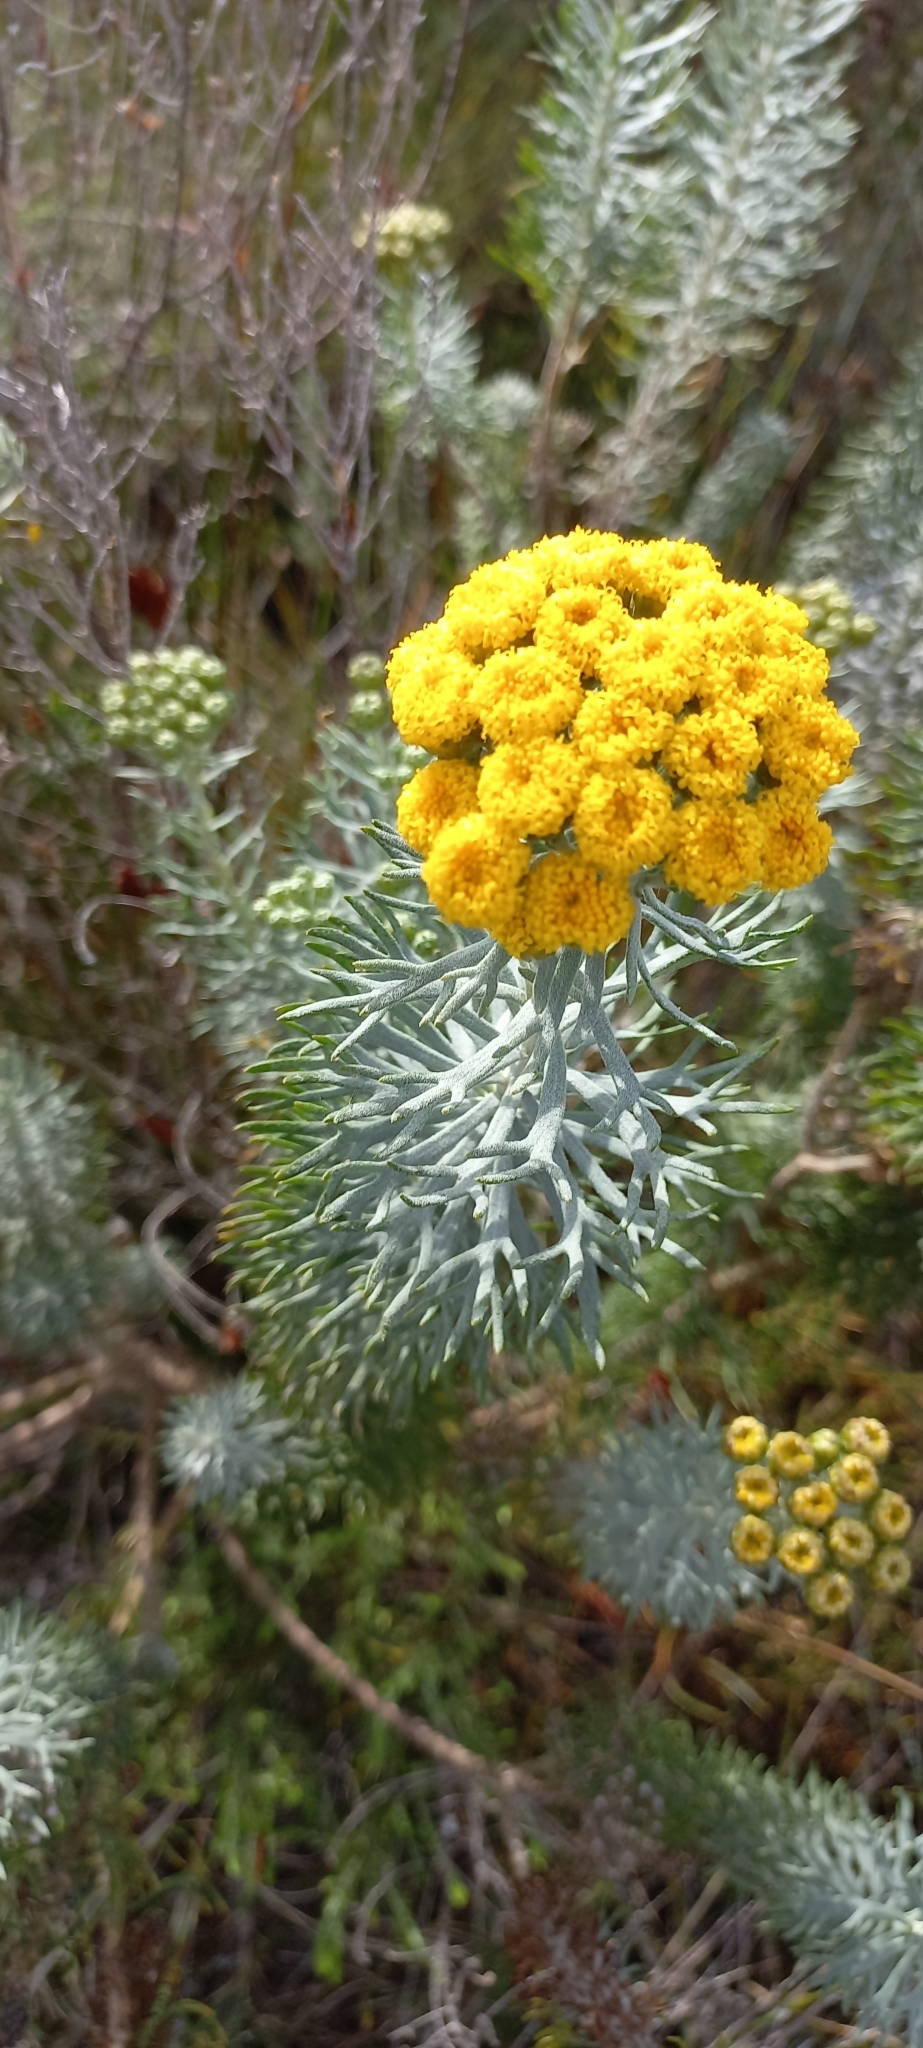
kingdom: Plantae
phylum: Tracheophyta
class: Magnoliopsida
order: Asterales
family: Asteraceae
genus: Athanasia
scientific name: Athanasia trifurcata
